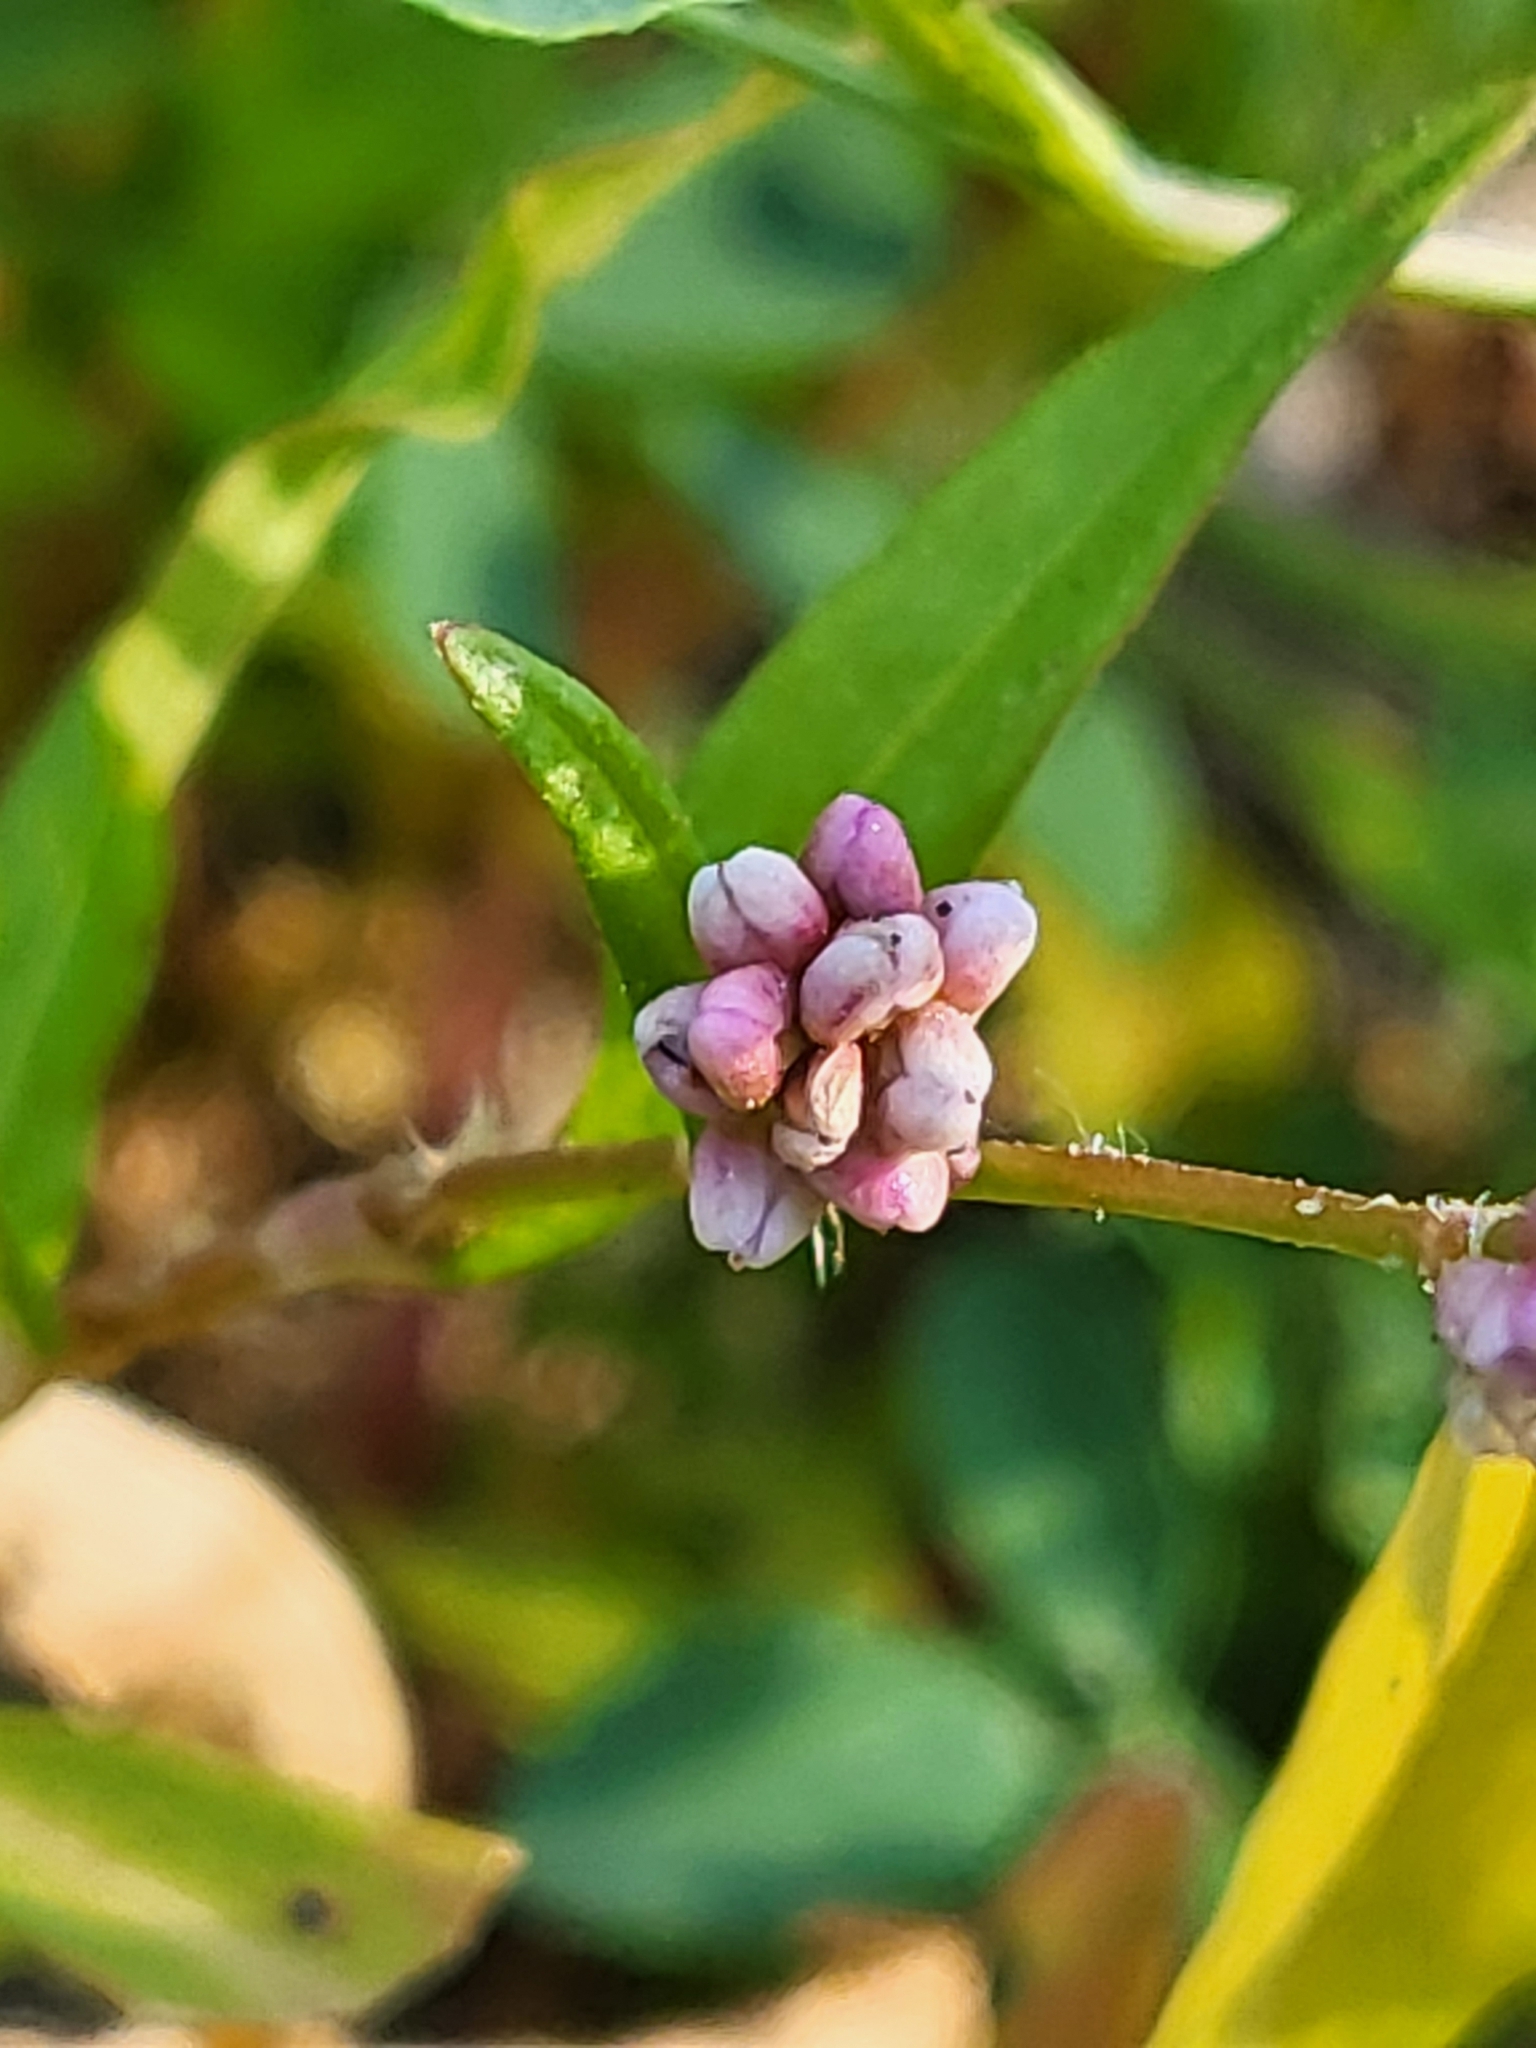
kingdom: Plantae
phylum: Tracheophyta
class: Magnoliopsida
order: Caryophyllales
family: Polygonaceae
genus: Persicaria
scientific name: Persicaria maculosa
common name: Redshank
